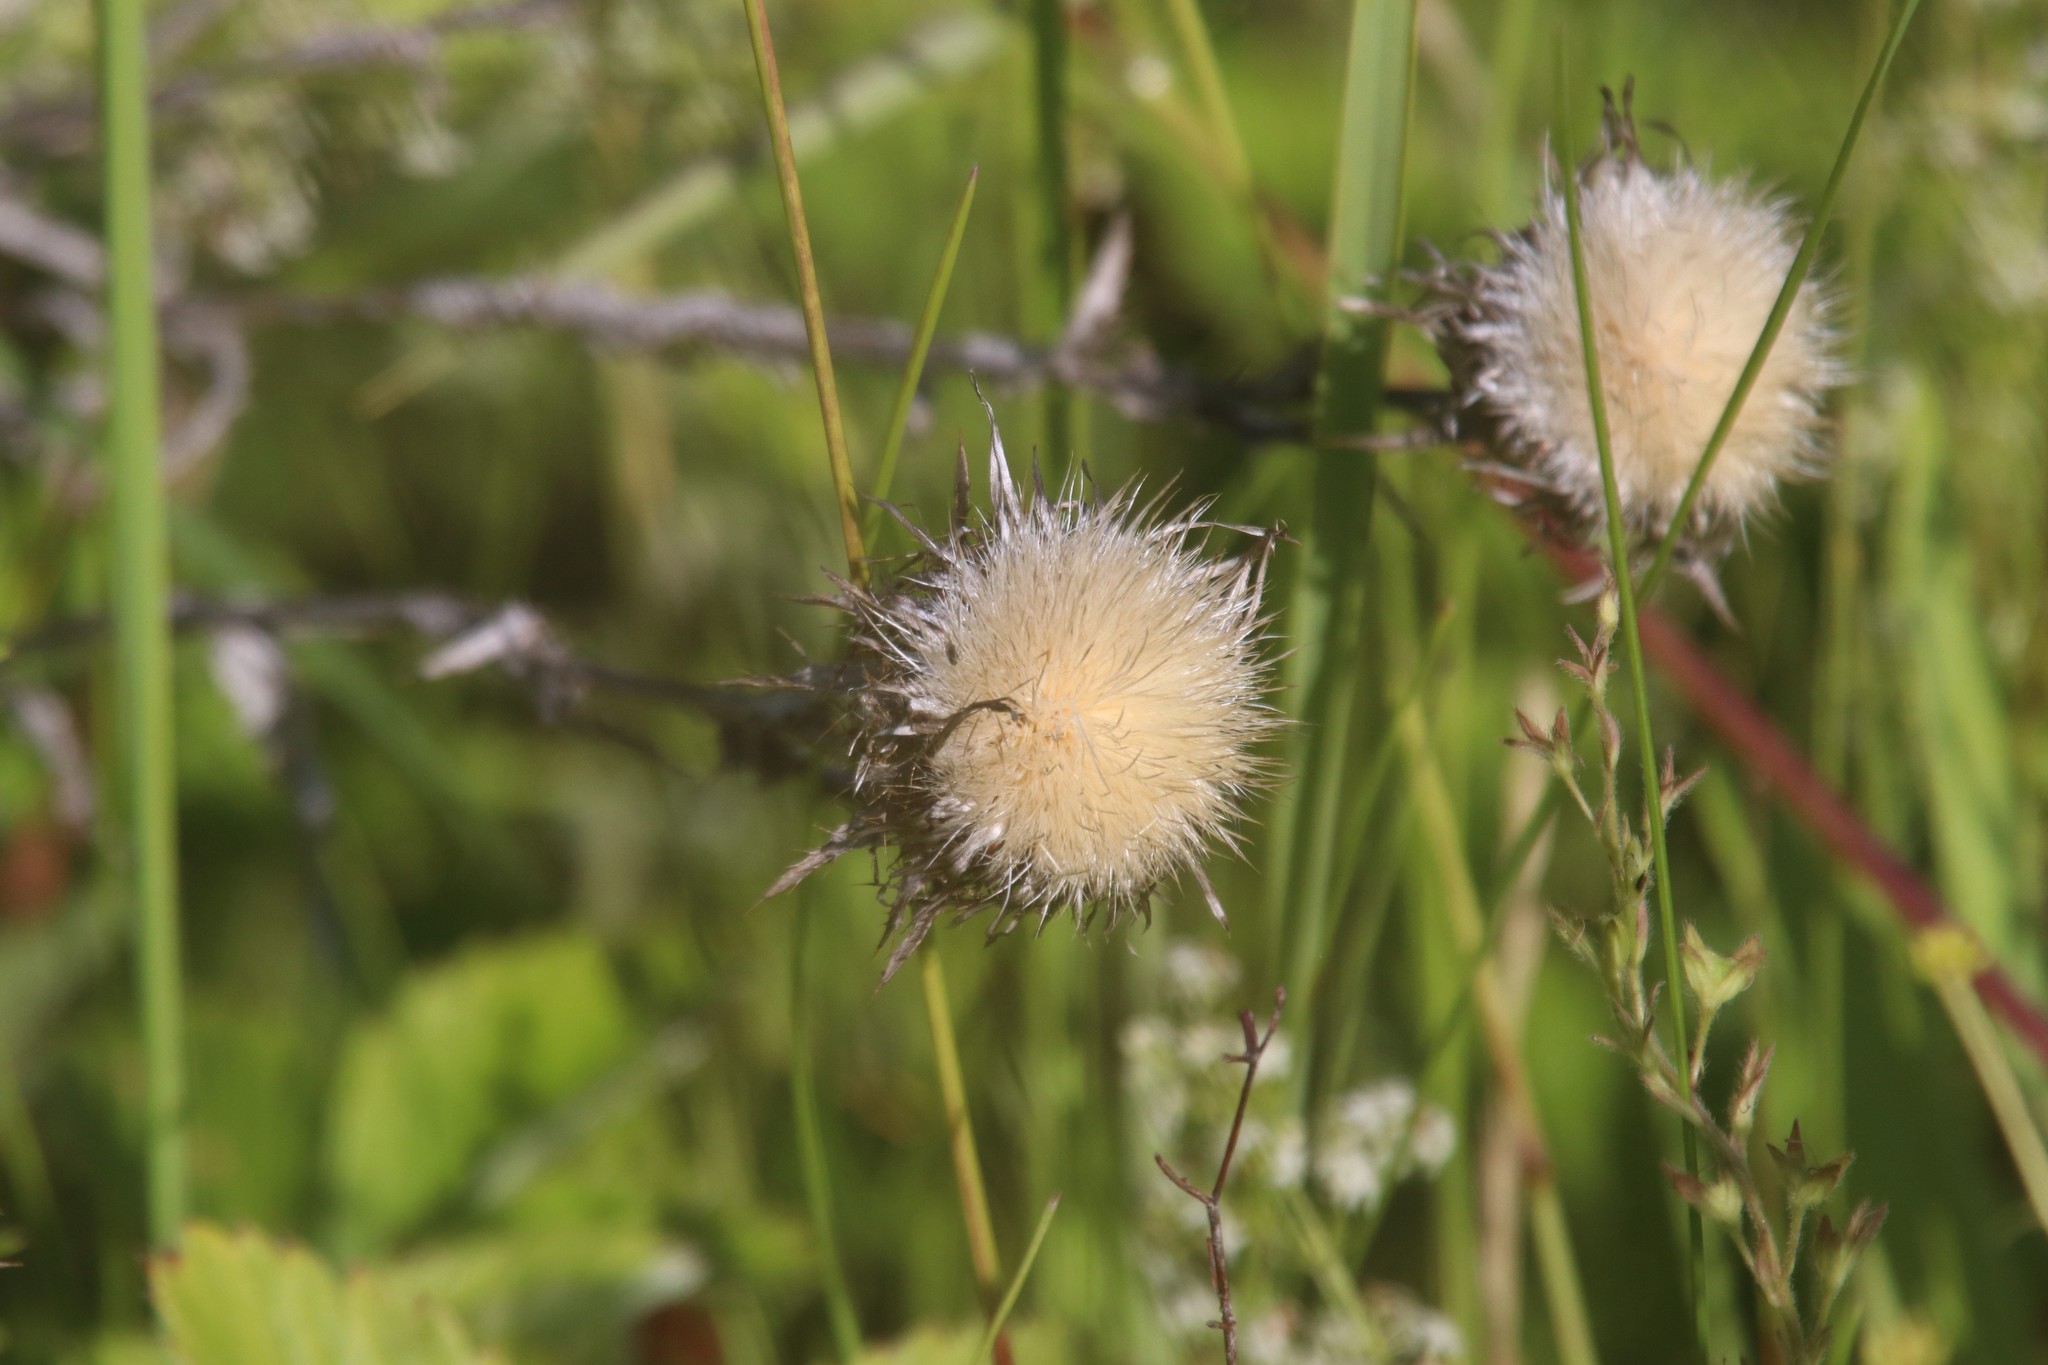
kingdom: Plantae
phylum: Tracheophyta
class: Magnoliopsida
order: Asterales
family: Asteraceae
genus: Carlina
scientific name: Carlina biebersteinii
